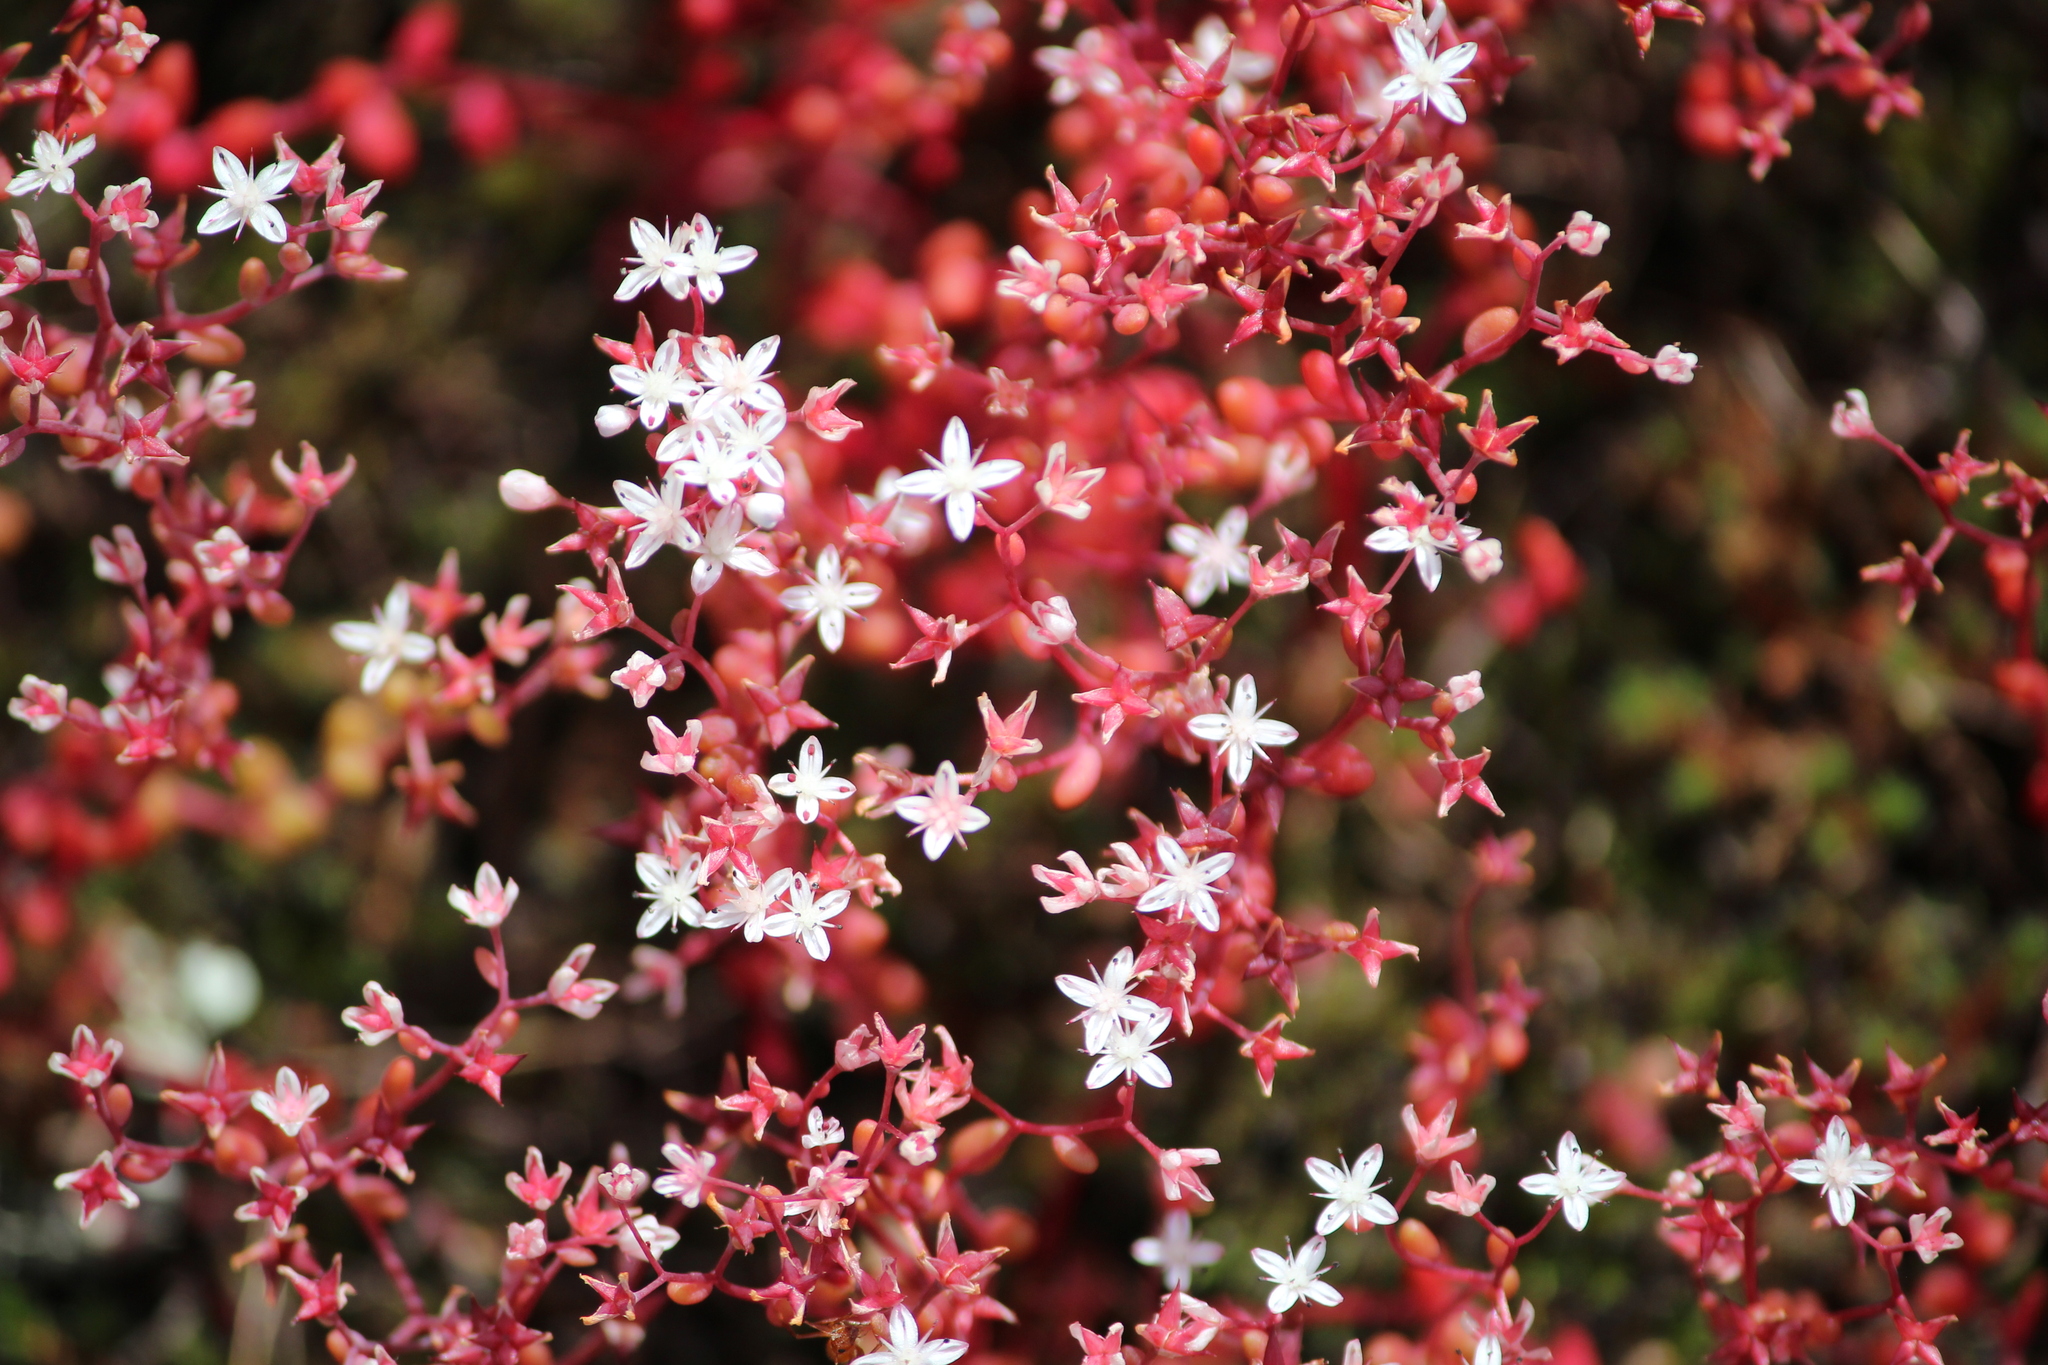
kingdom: Plantae
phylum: Tracheophyta
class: Magnoliopsida
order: Saxifragales
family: Crassulaceae
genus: Sedum
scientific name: Sedum smallii
